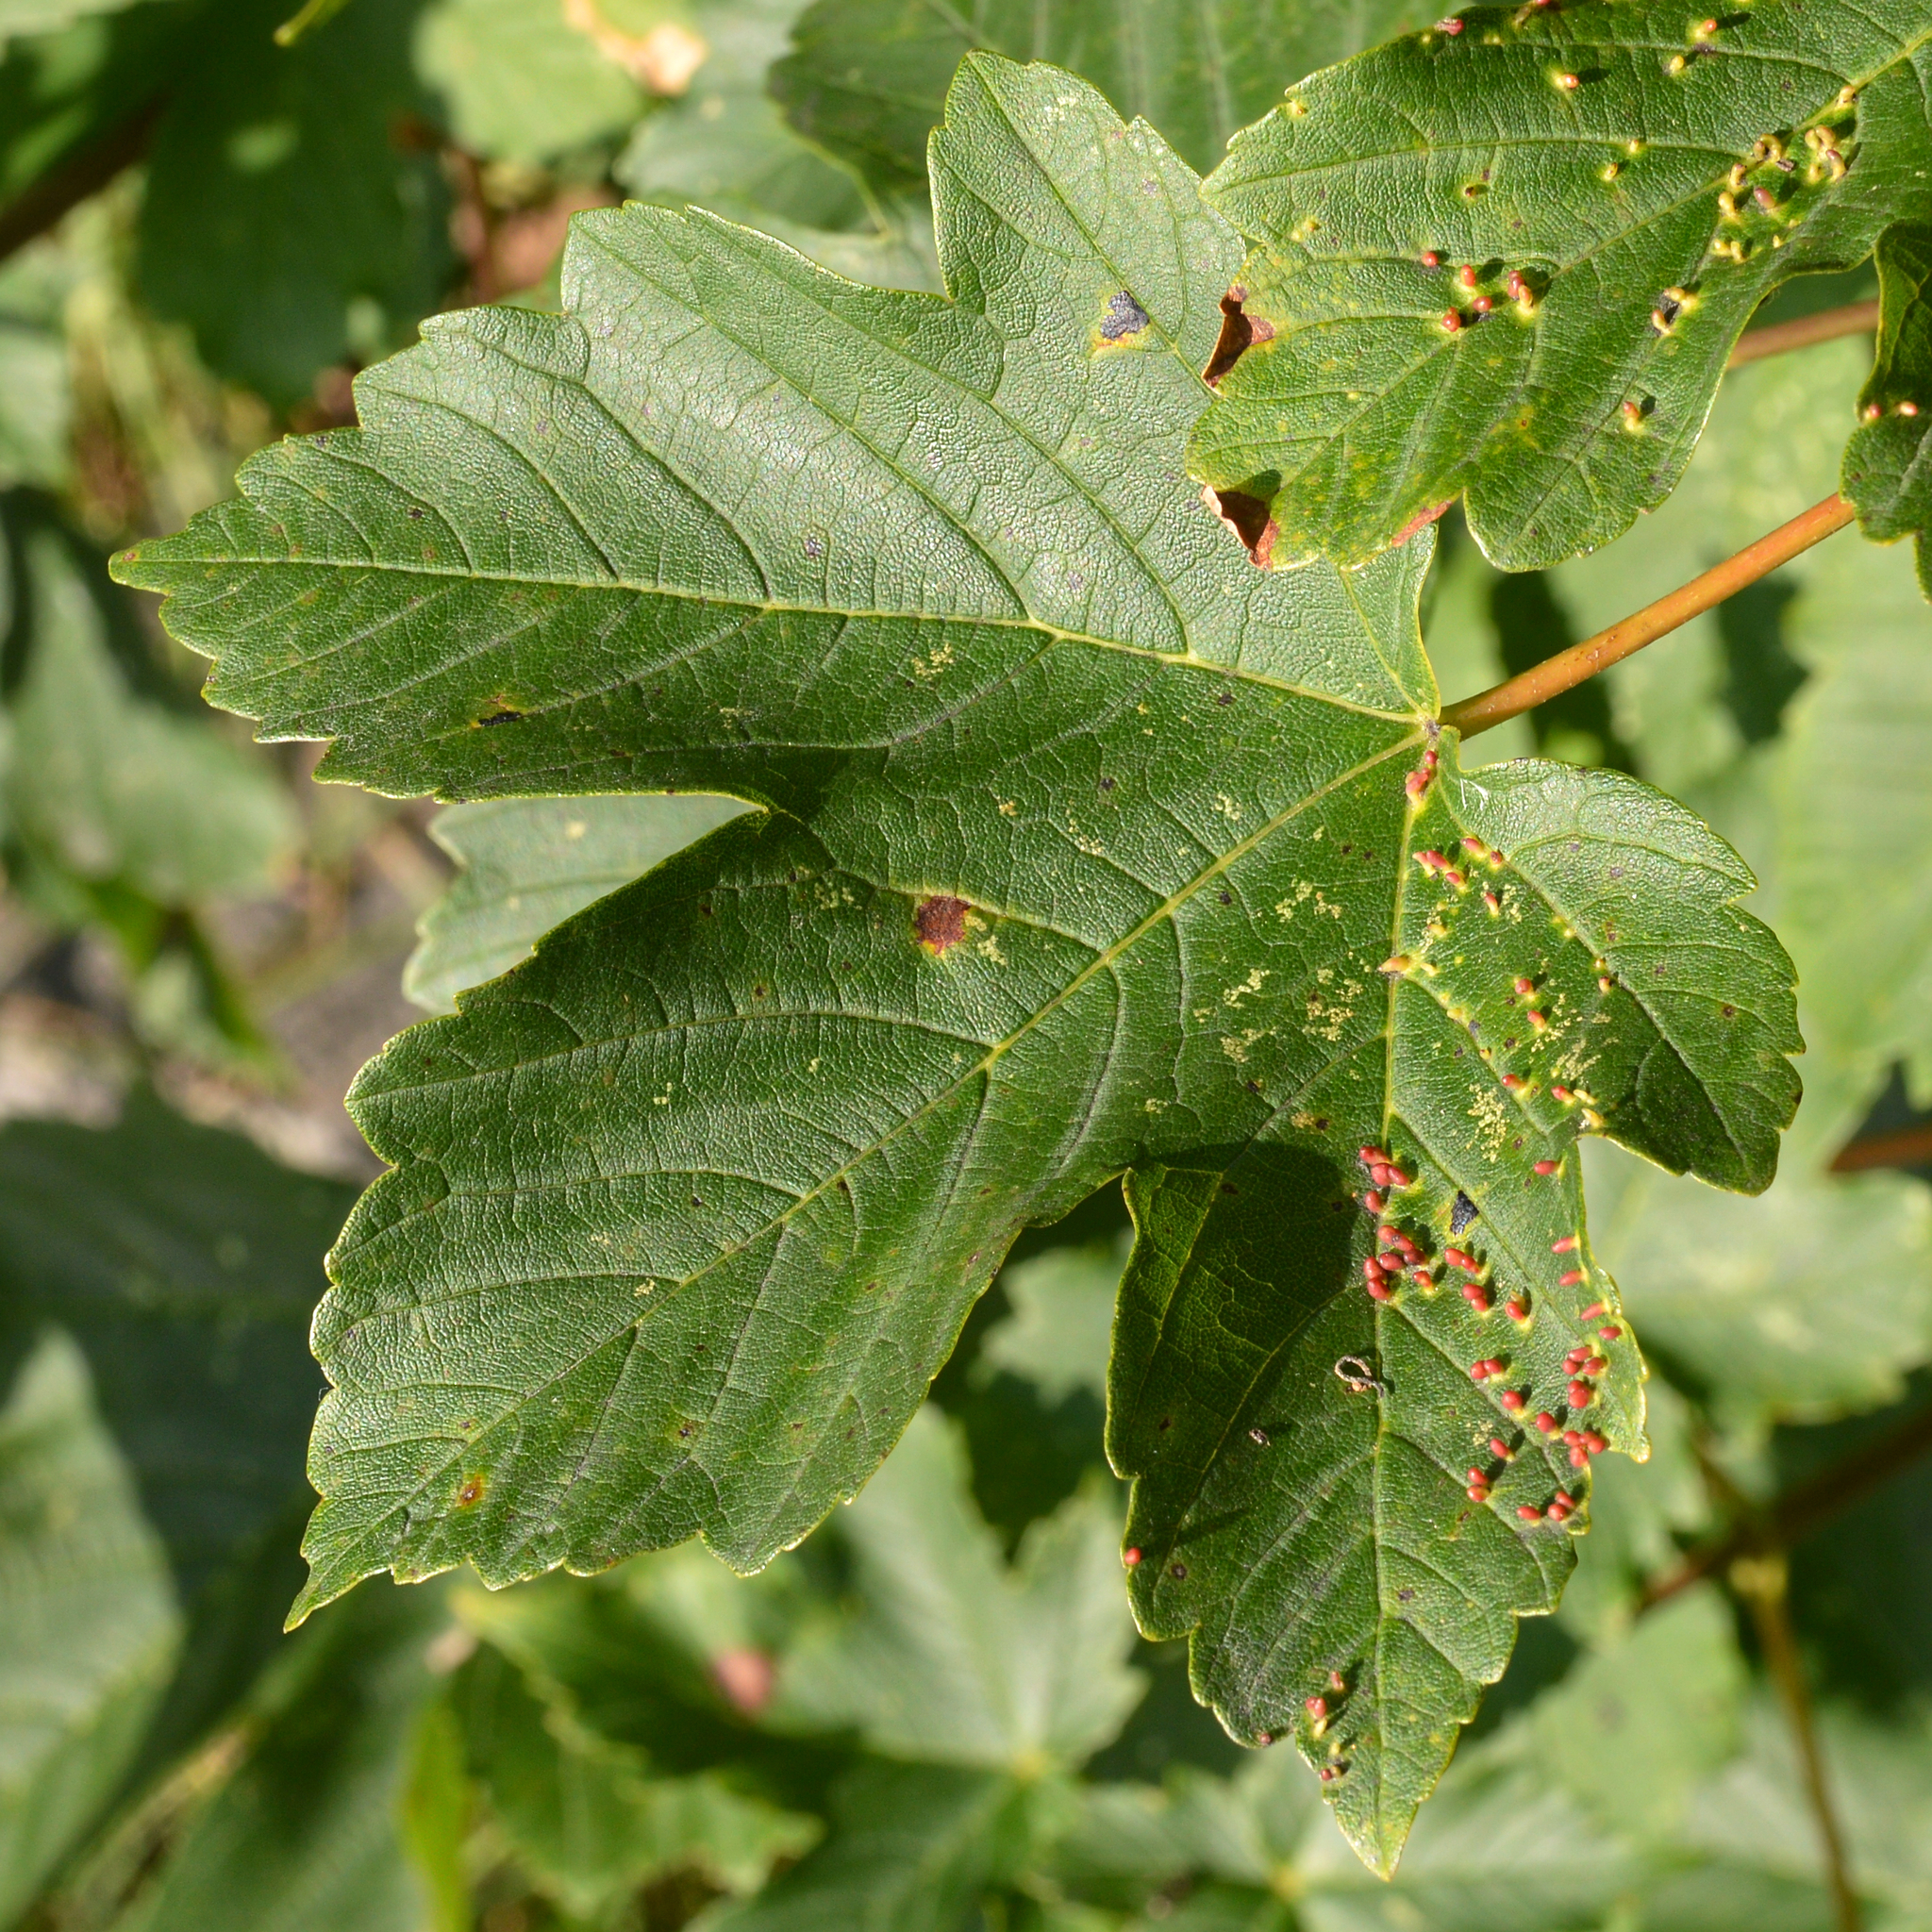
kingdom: Plantae
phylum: Tracheophyta
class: Magnoliopsida
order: Sapindales
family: Sapindaceae
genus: Acer
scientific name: Acer pseudoplatanus
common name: Sycamore
